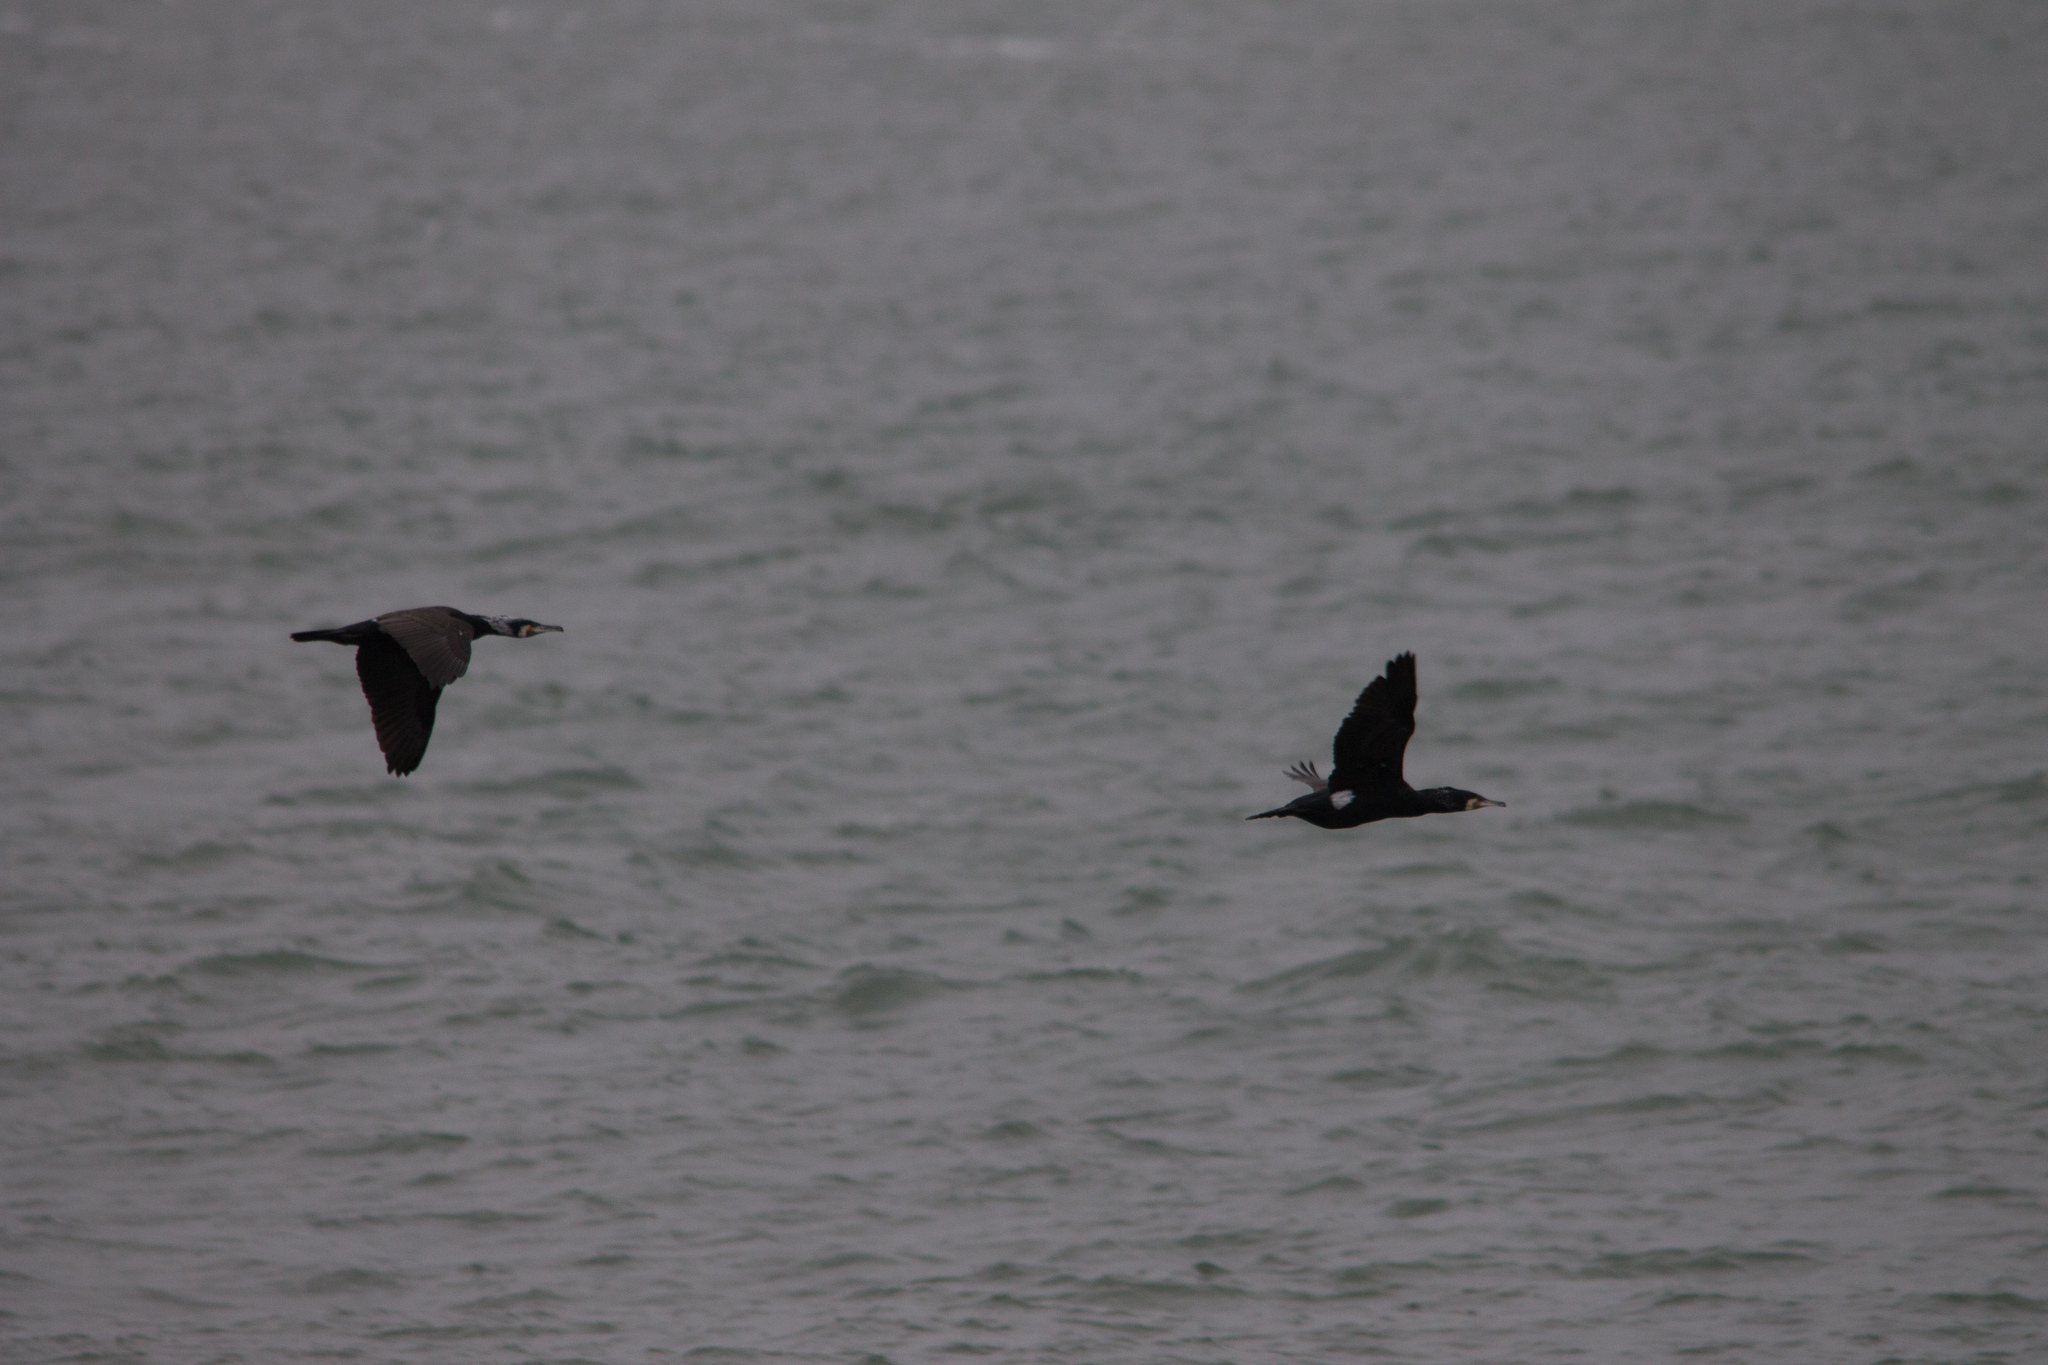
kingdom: Animalia
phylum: Chordata
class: Aves
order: Suliformes
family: Phalacrocoracidae
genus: Phalacrocorax
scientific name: Phalacrocorax carbo
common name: Great cormorant
